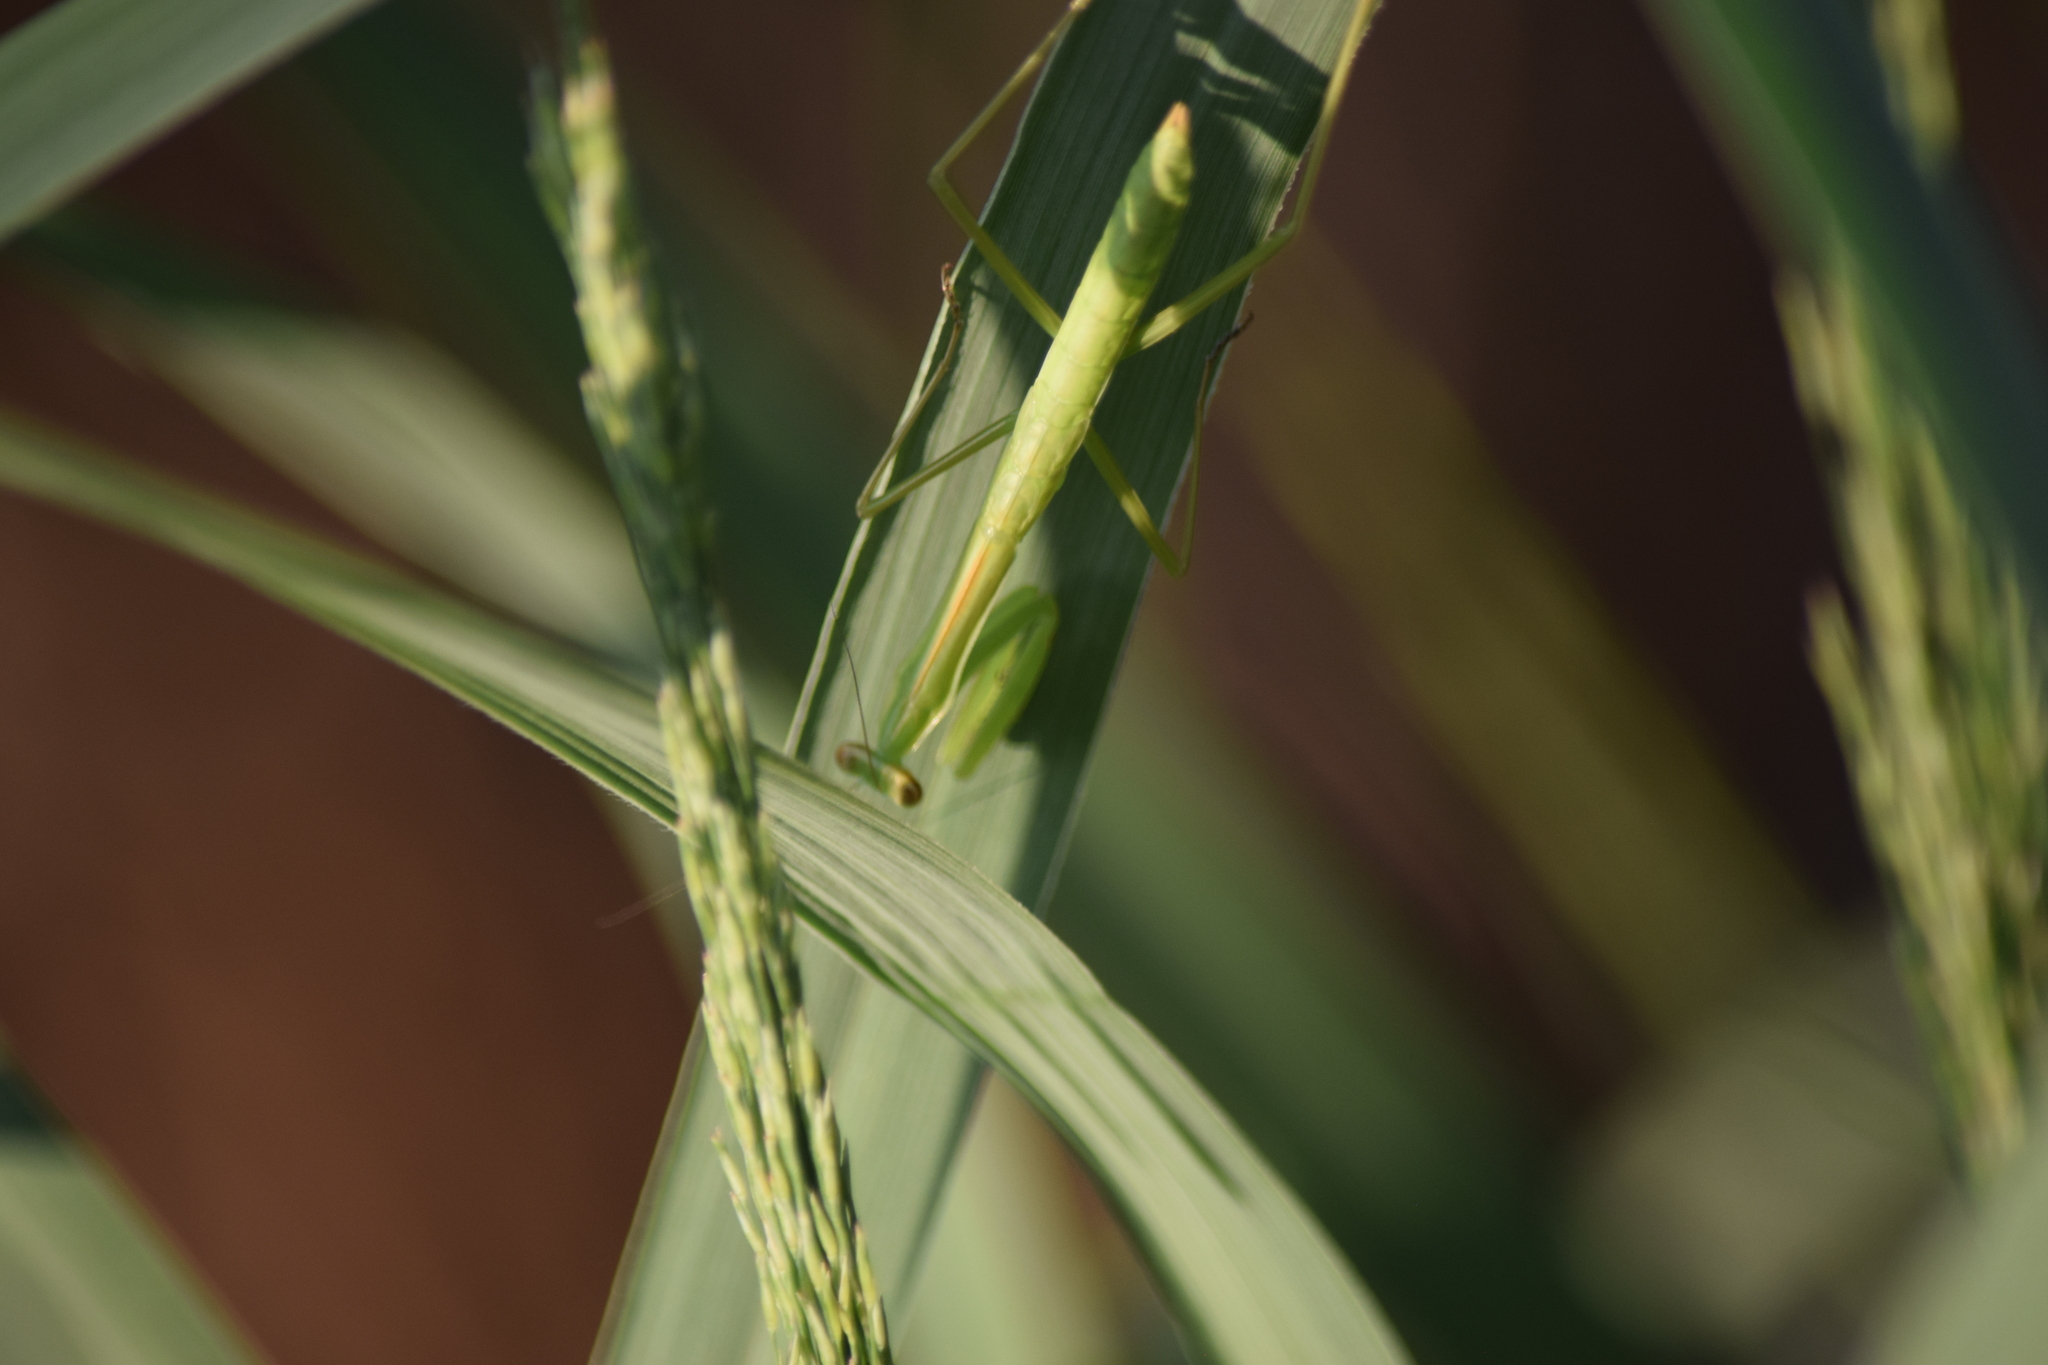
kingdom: Animalia
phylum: Arthropoda
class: Insecta
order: Mantodea
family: Mantidae
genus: Tenodera
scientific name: Tenodera sinensis
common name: Chinese mantis
